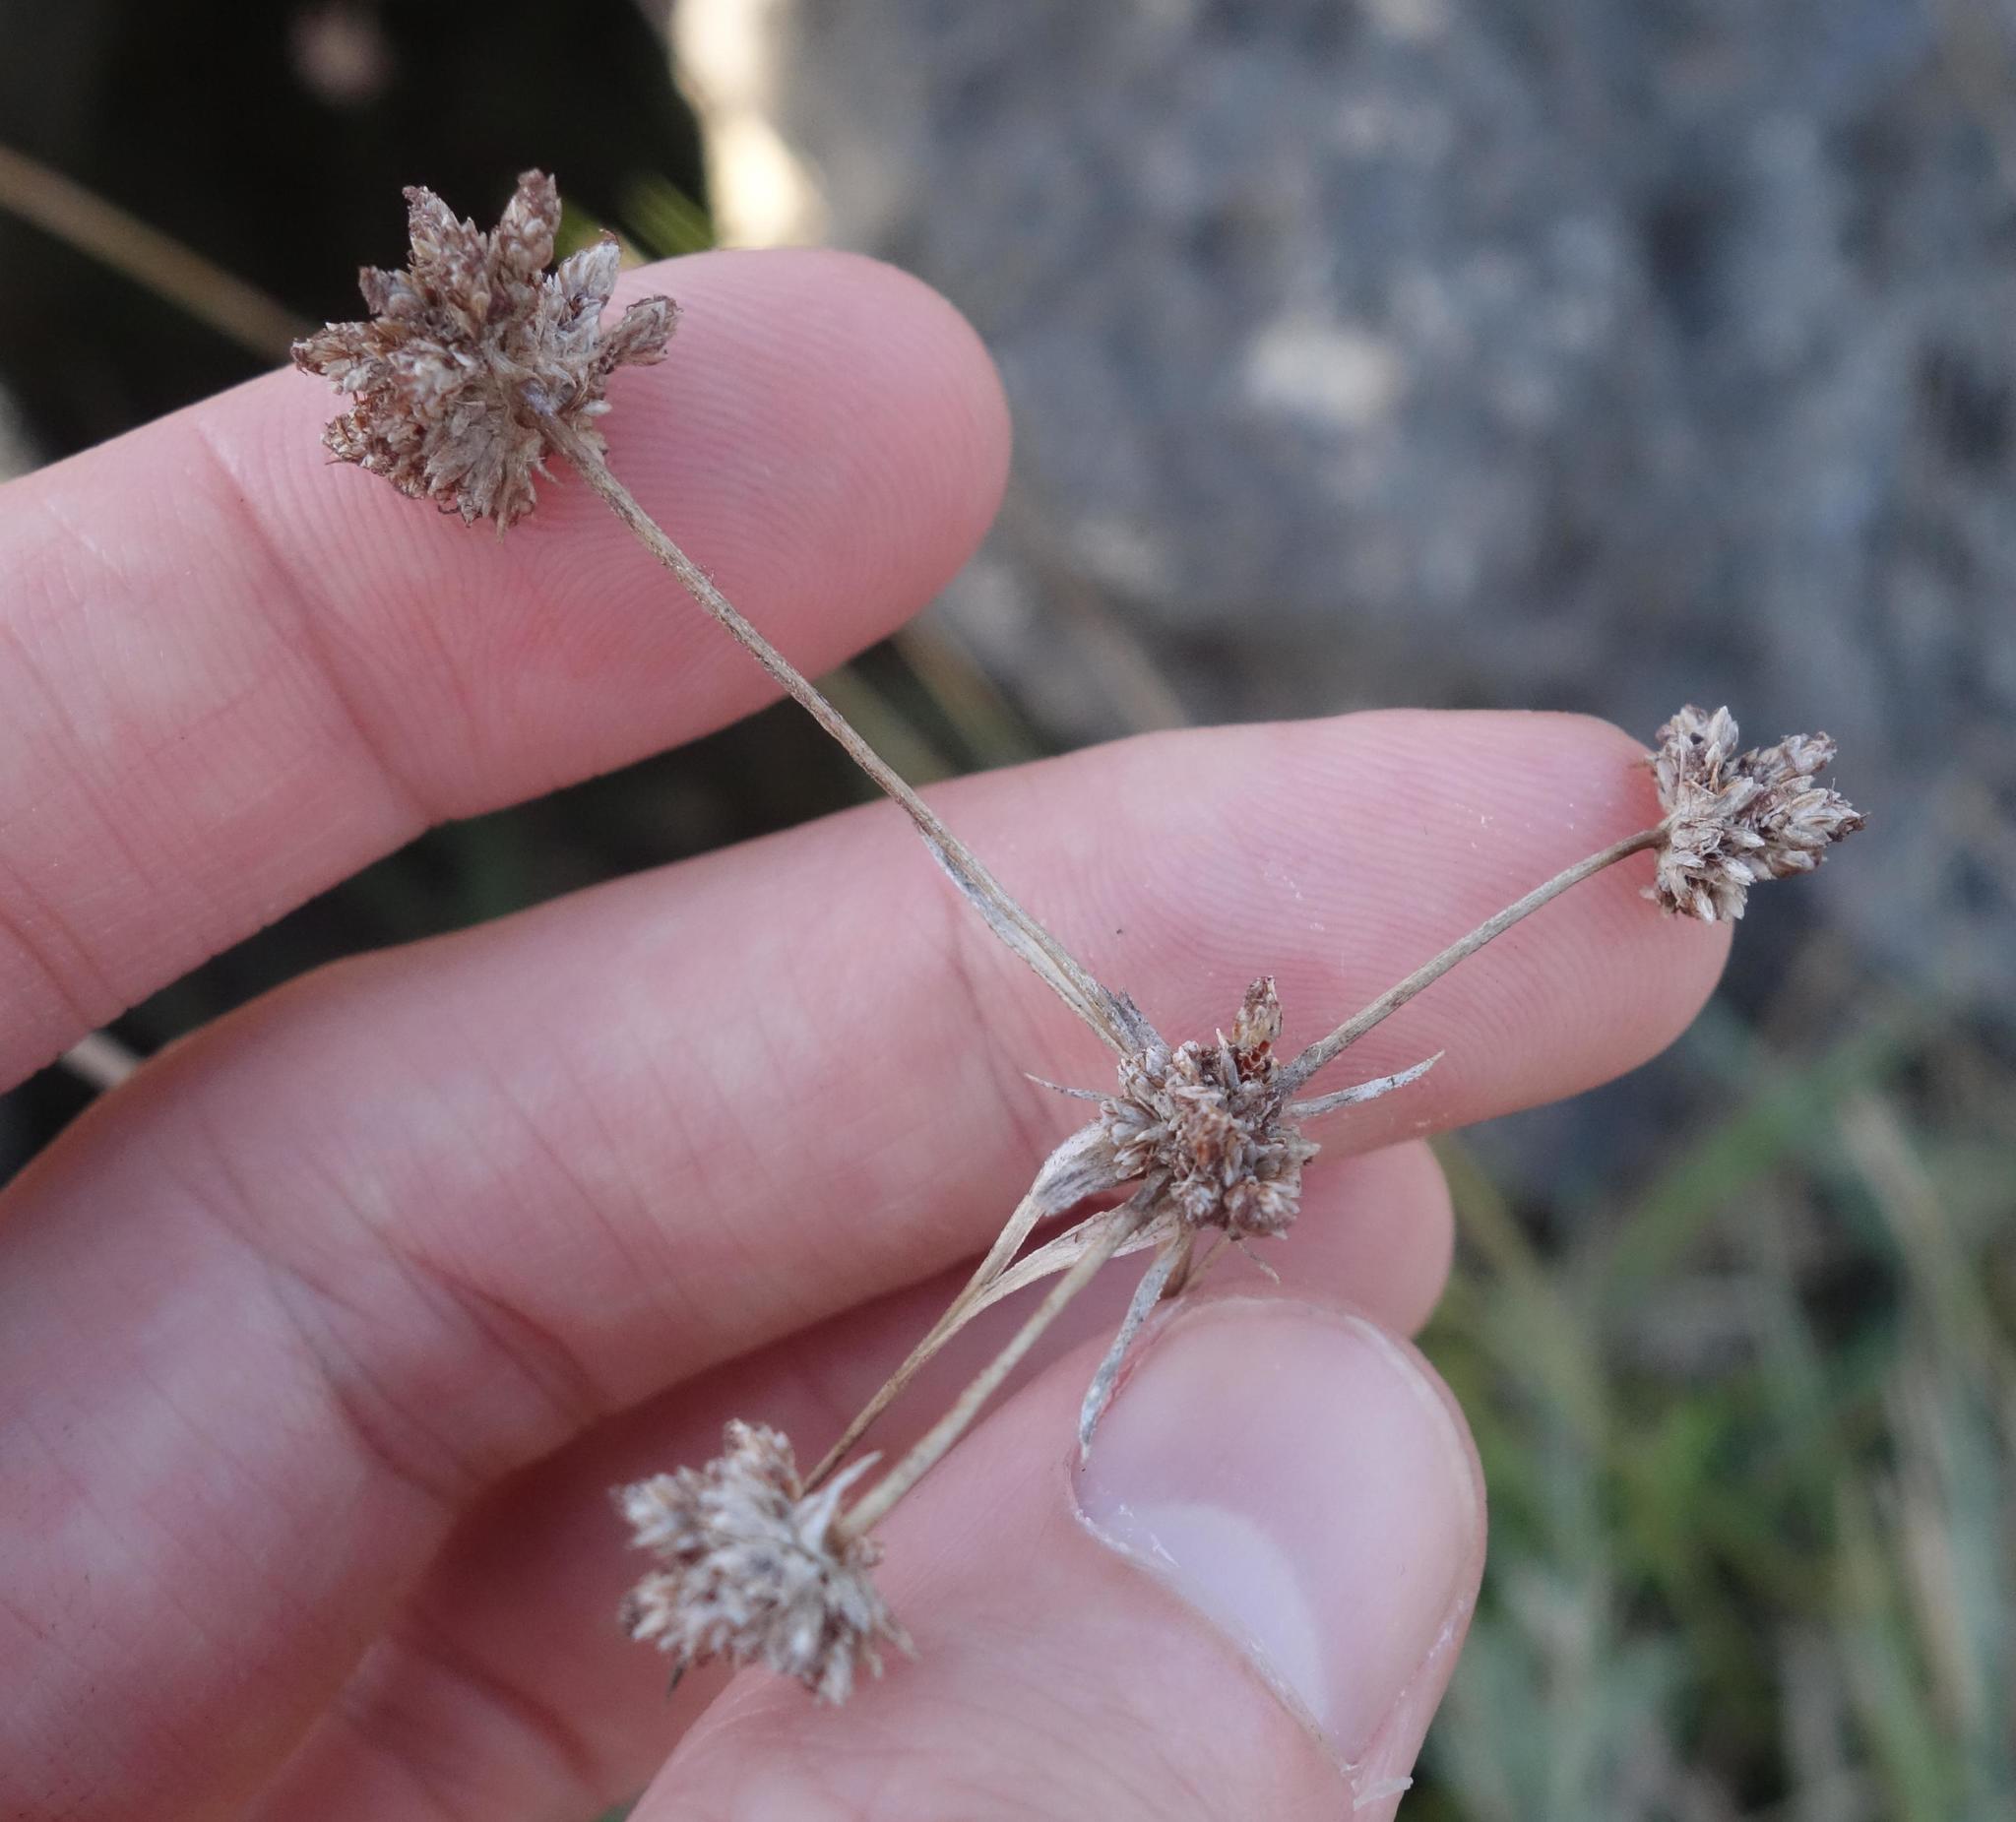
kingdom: Plantae
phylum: Tracheophyta
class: Liliopsida
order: Poales
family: Cyperaceae
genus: Fimbristylis
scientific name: Fimbristylis cymosa
